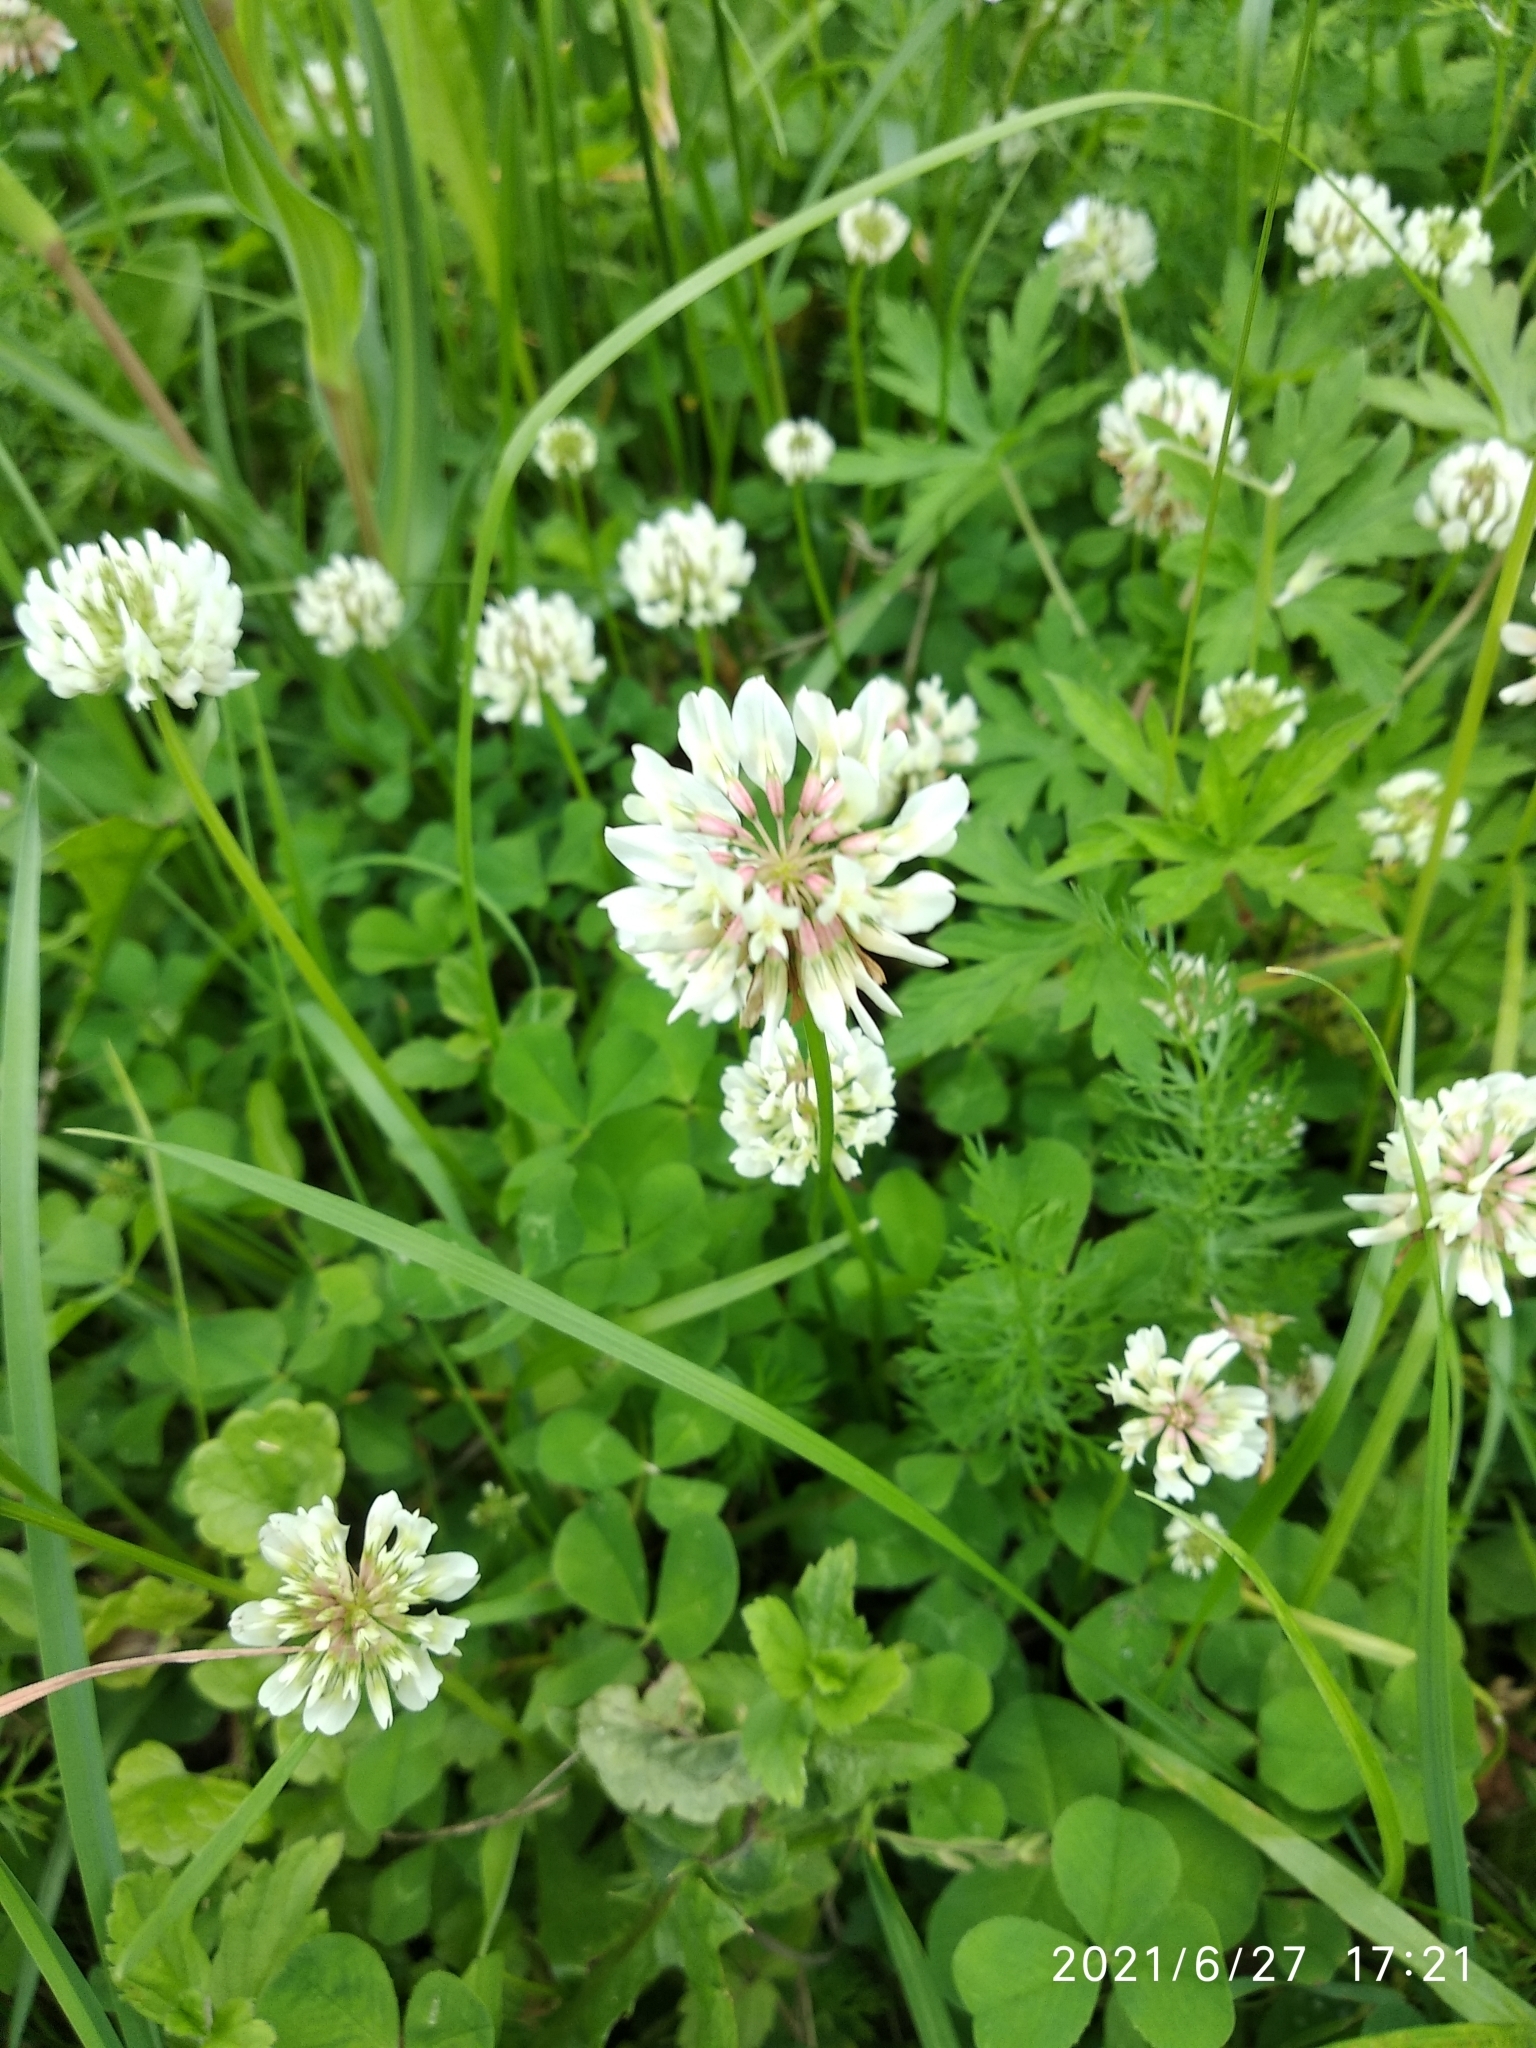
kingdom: Plantae
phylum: Tracheophyta
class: Magnoliopsida
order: Fabales
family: Fabaceae
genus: Trifolium
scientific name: Trifolium repens
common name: White clover
